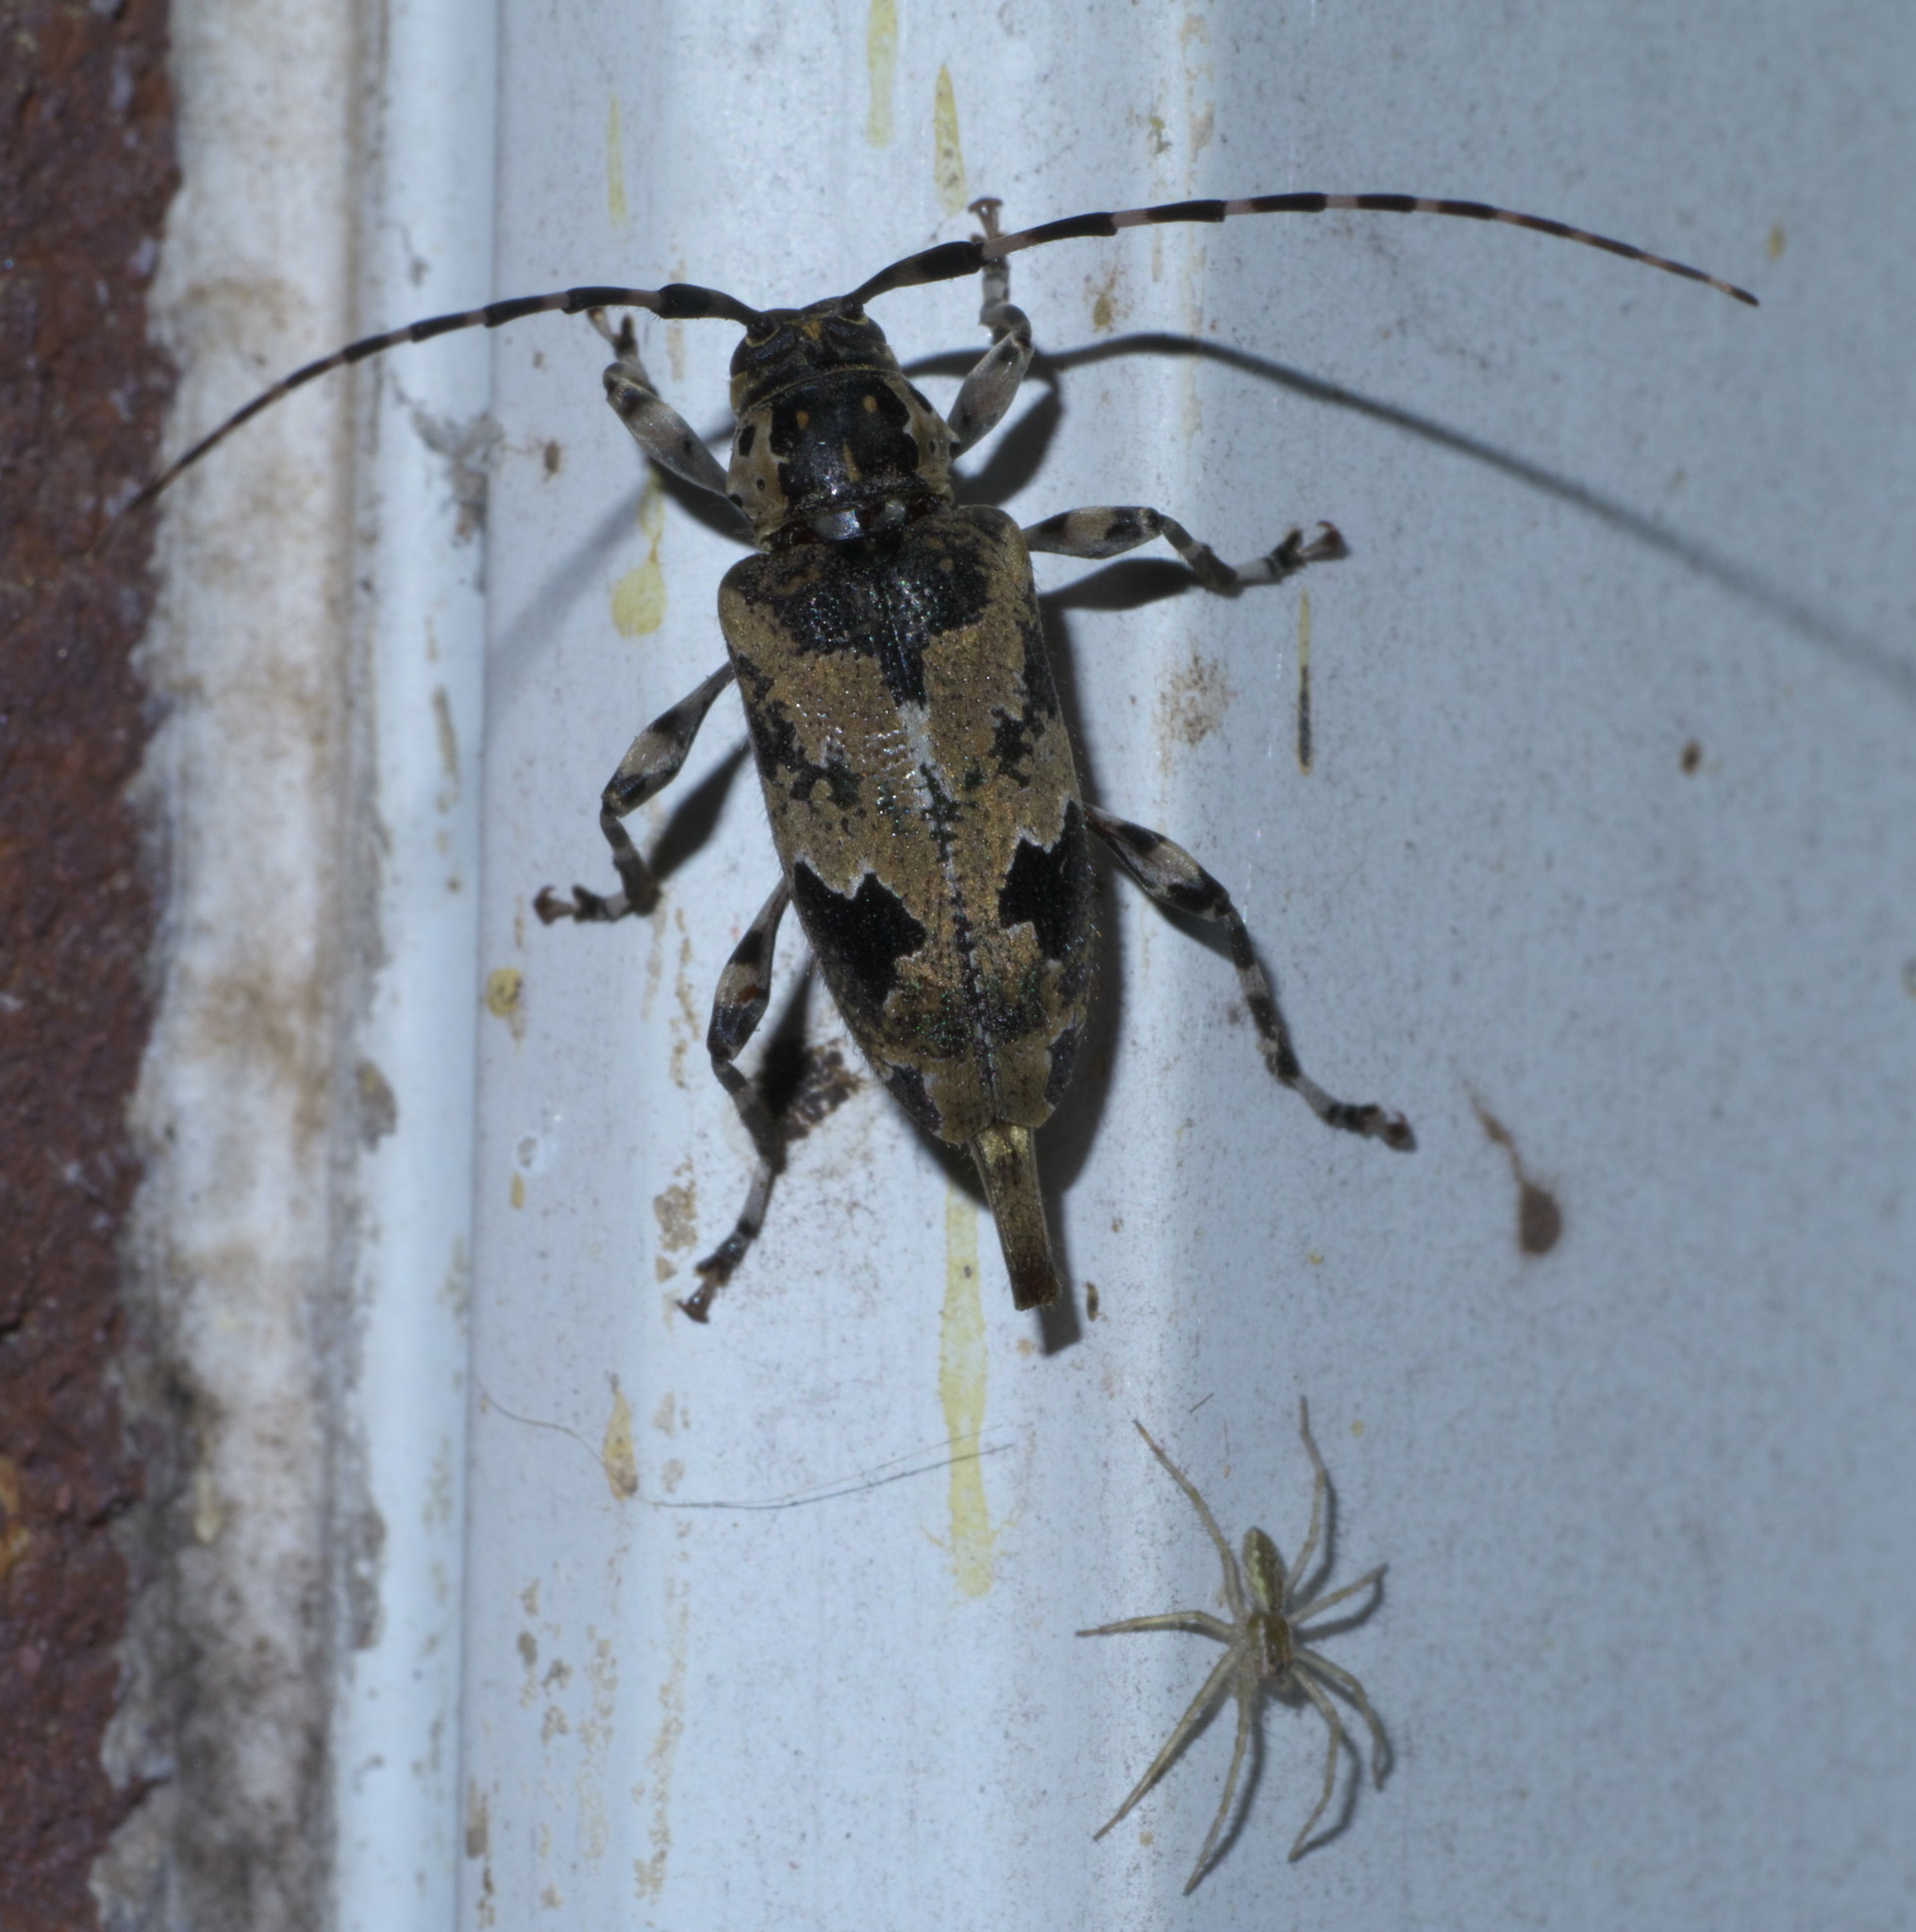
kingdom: Animalia
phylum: Arthropoda
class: Insecta
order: Coleoptera
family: Cerambycidae
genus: Graphisurus
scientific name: Graphisurus triangulifer
